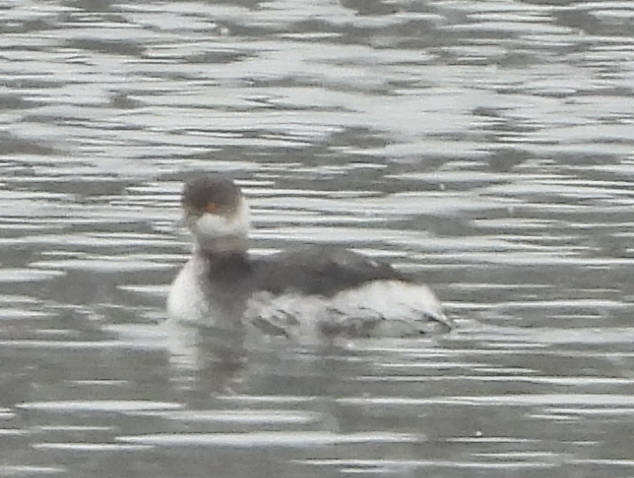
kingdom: Animalia
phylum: Chordata
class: Aves
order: Podicipediformes
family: Podicipedidae
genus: Podiceps
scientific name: Podiceps nigricollis
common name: Black-necked grebe
